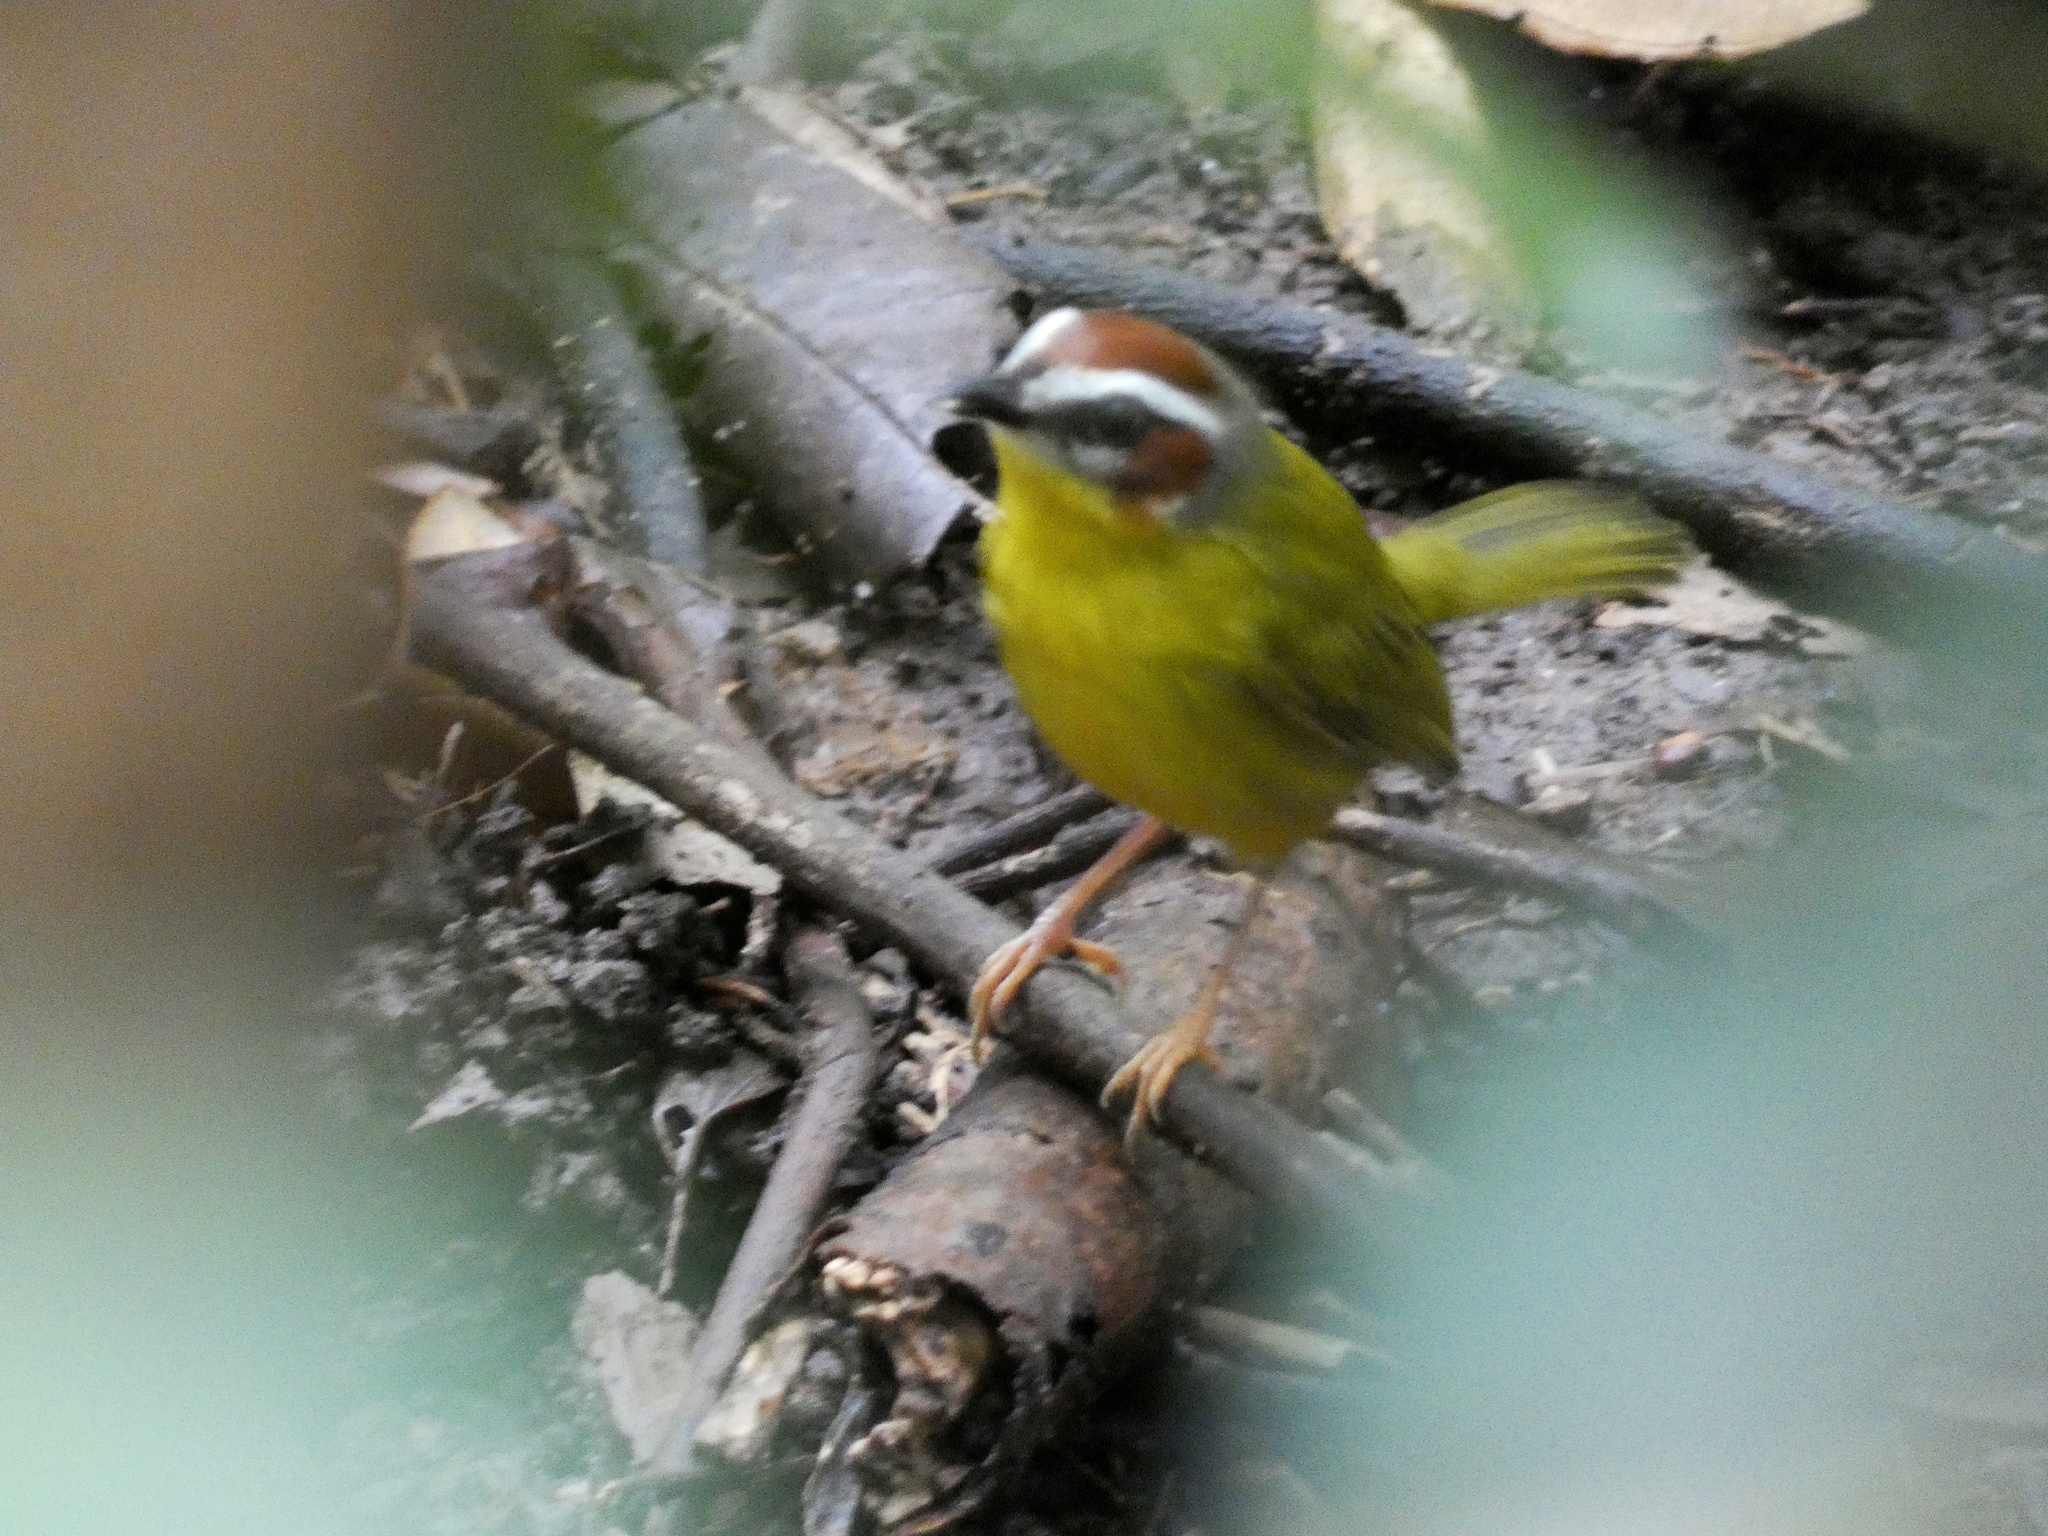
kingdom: Animalia
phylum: Chordata
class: Aves
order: Passeriformes
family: Parulidae
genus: Basileuterus
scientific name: Basileuterus rufifrons
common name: Rufous-capped warbler
